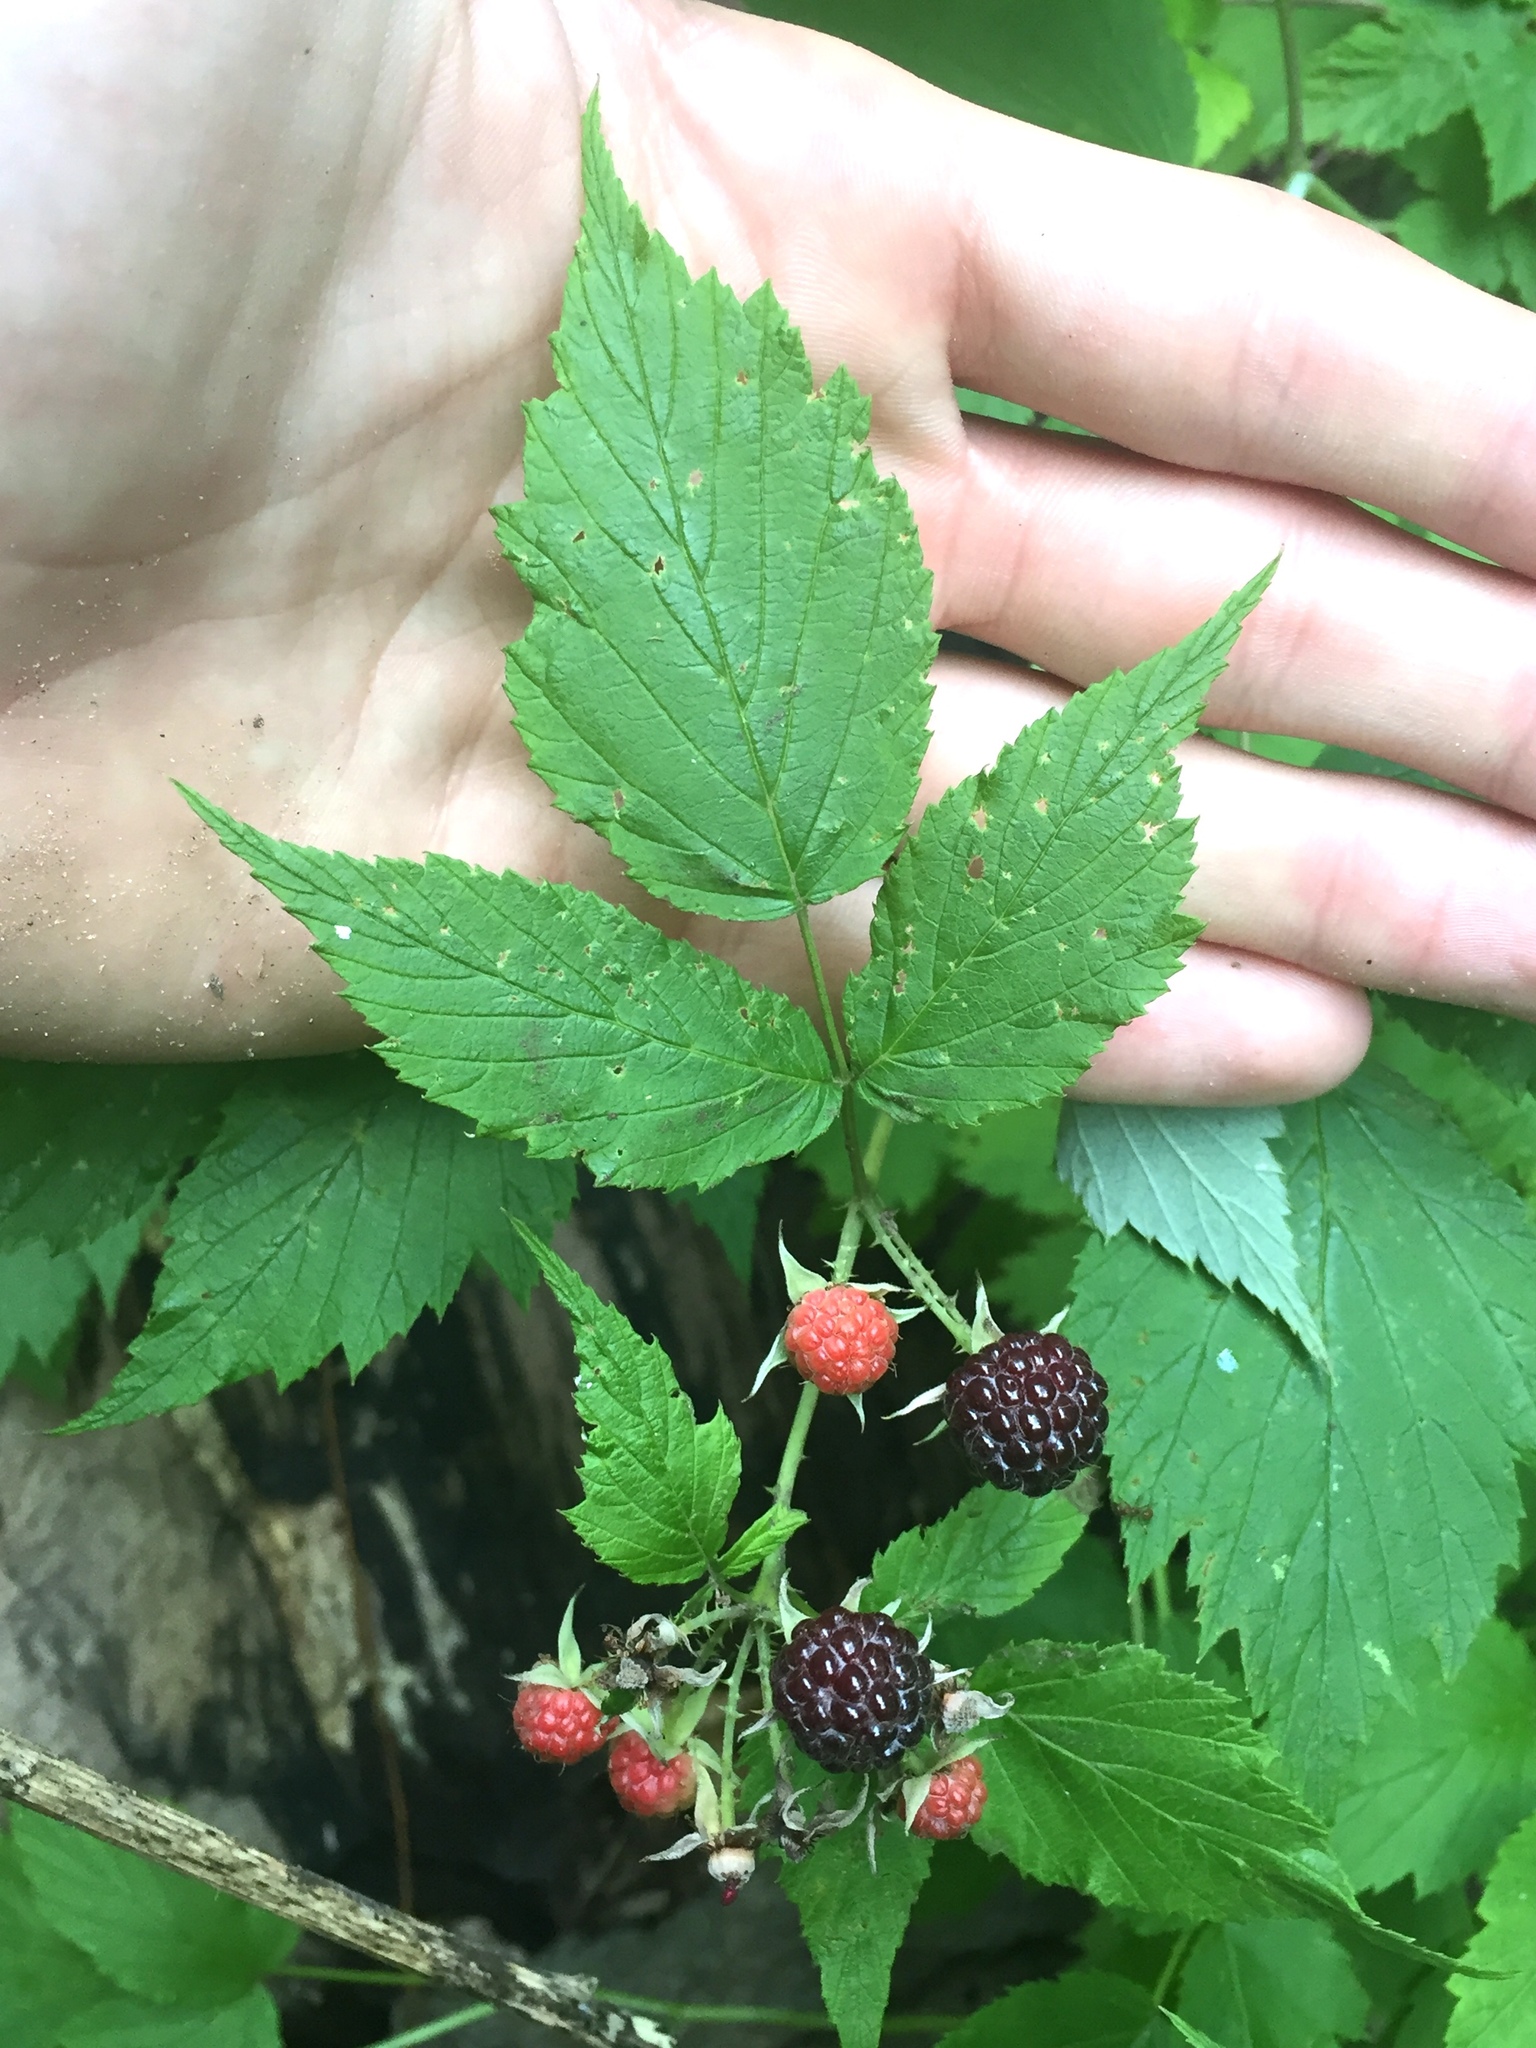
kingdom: Plantae
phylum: Tracheophyta
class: Magnoliopsida
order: Rosales
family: Rosaceae
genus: Rubus
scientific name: Rubus occidentalis
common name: Black raspberry
